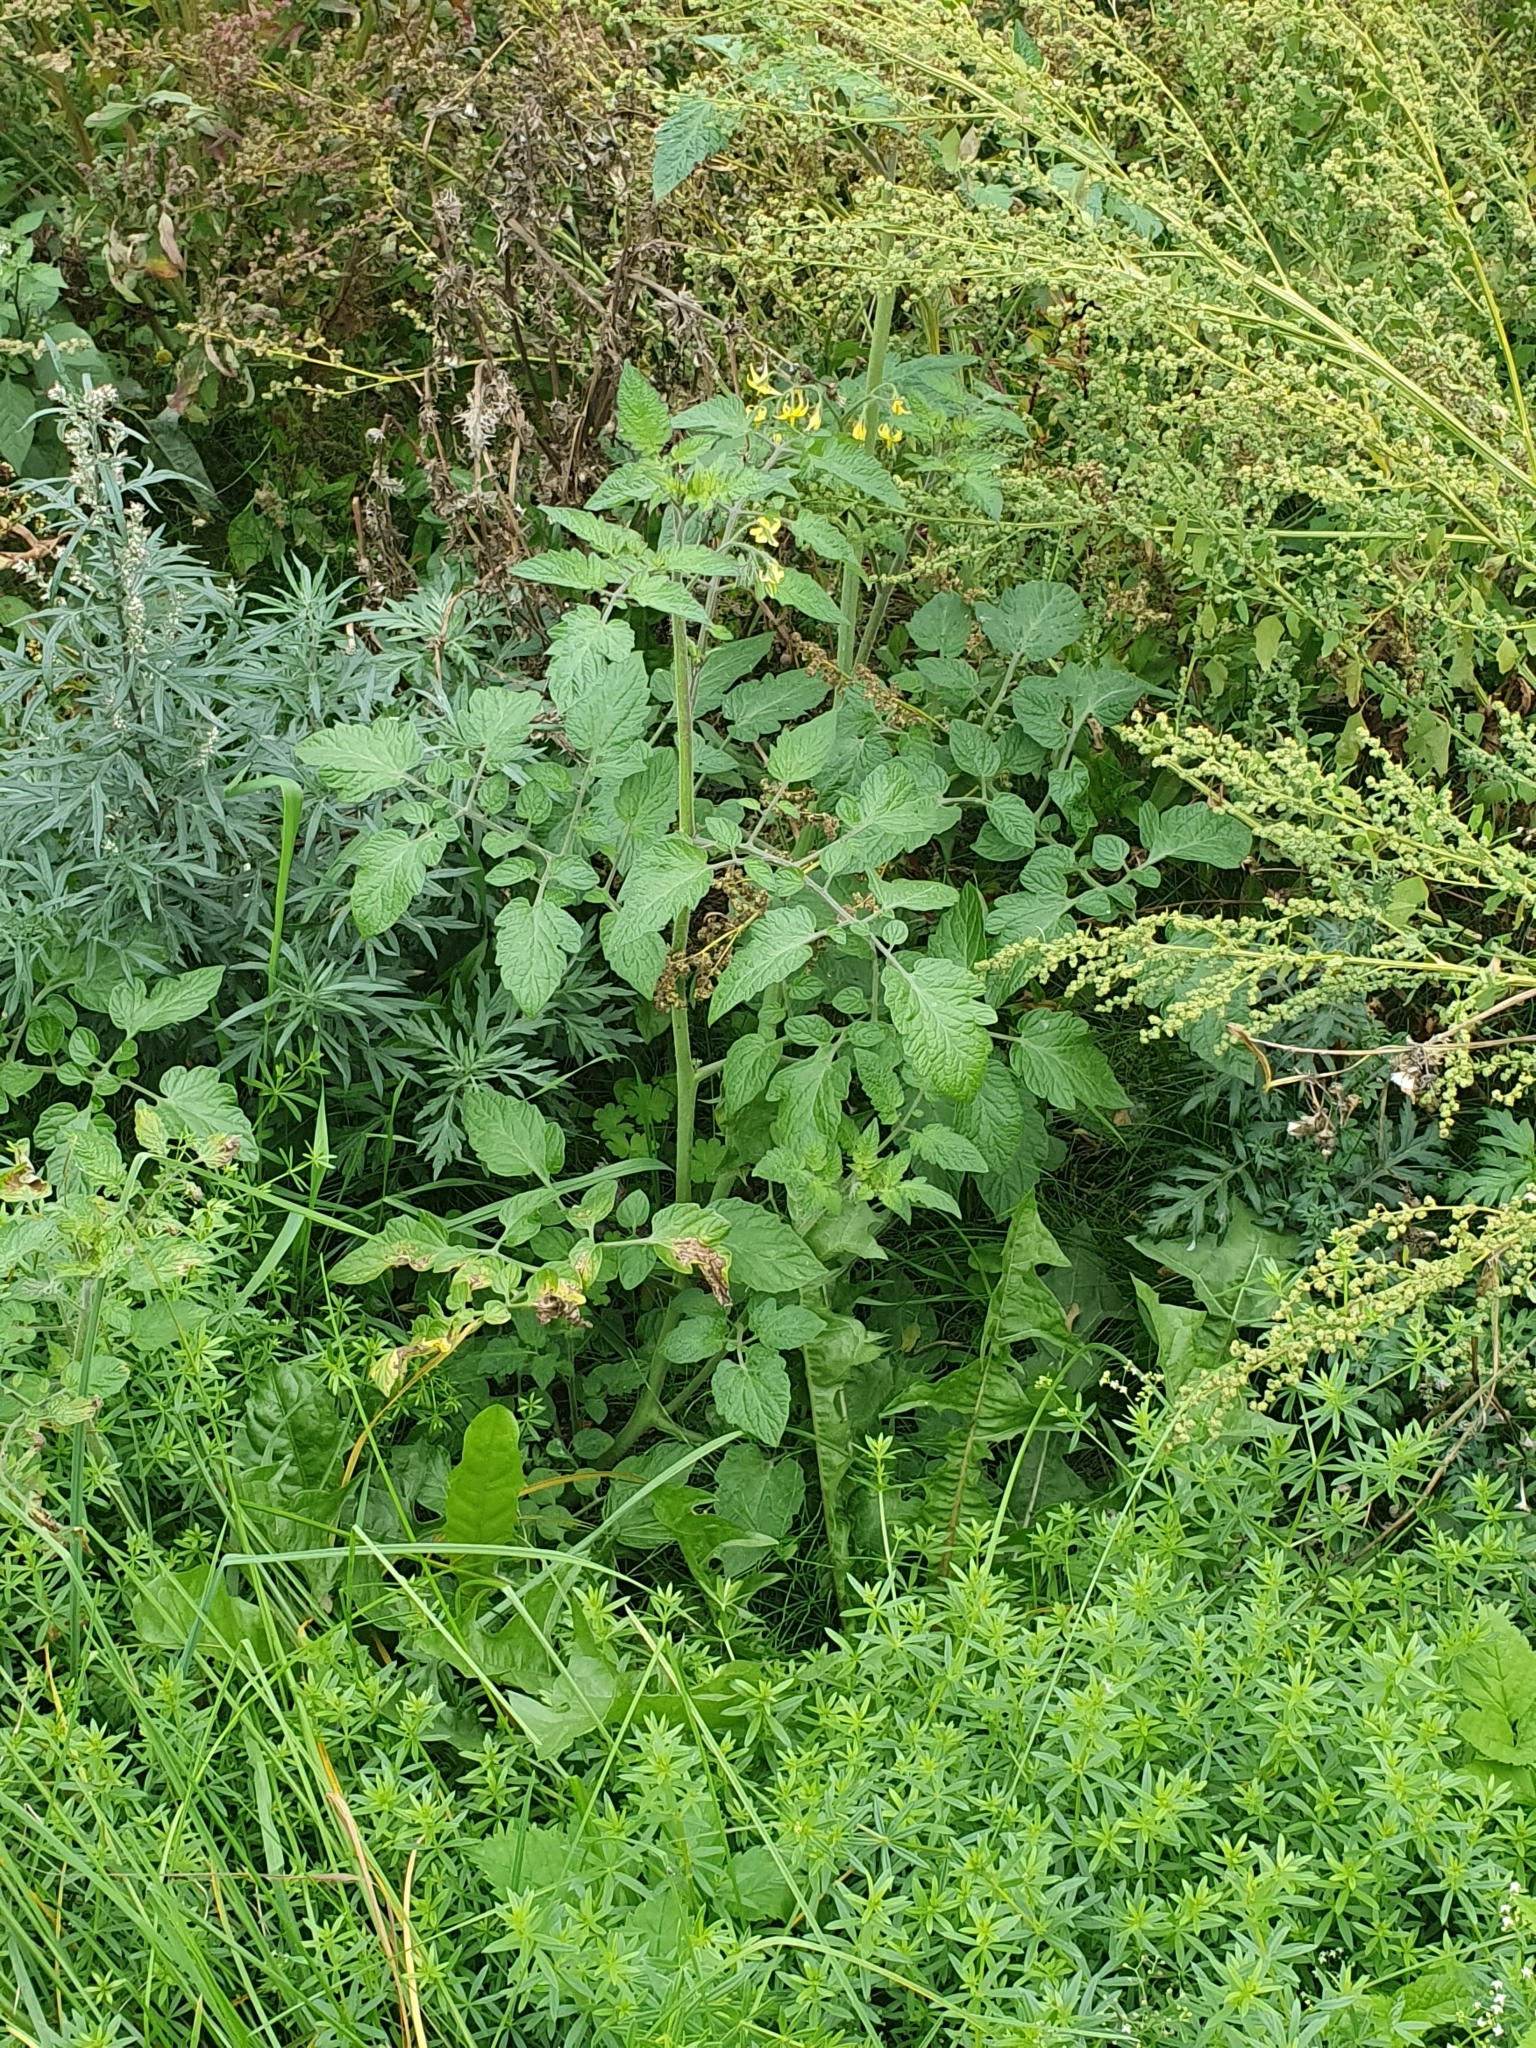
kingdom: Plantae
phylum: Tracheophyta
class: Magnoliopsida
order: Solanales
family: Solanaceae
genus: Solanum
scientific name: Solanum lycopersicum
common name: Garden tomato
